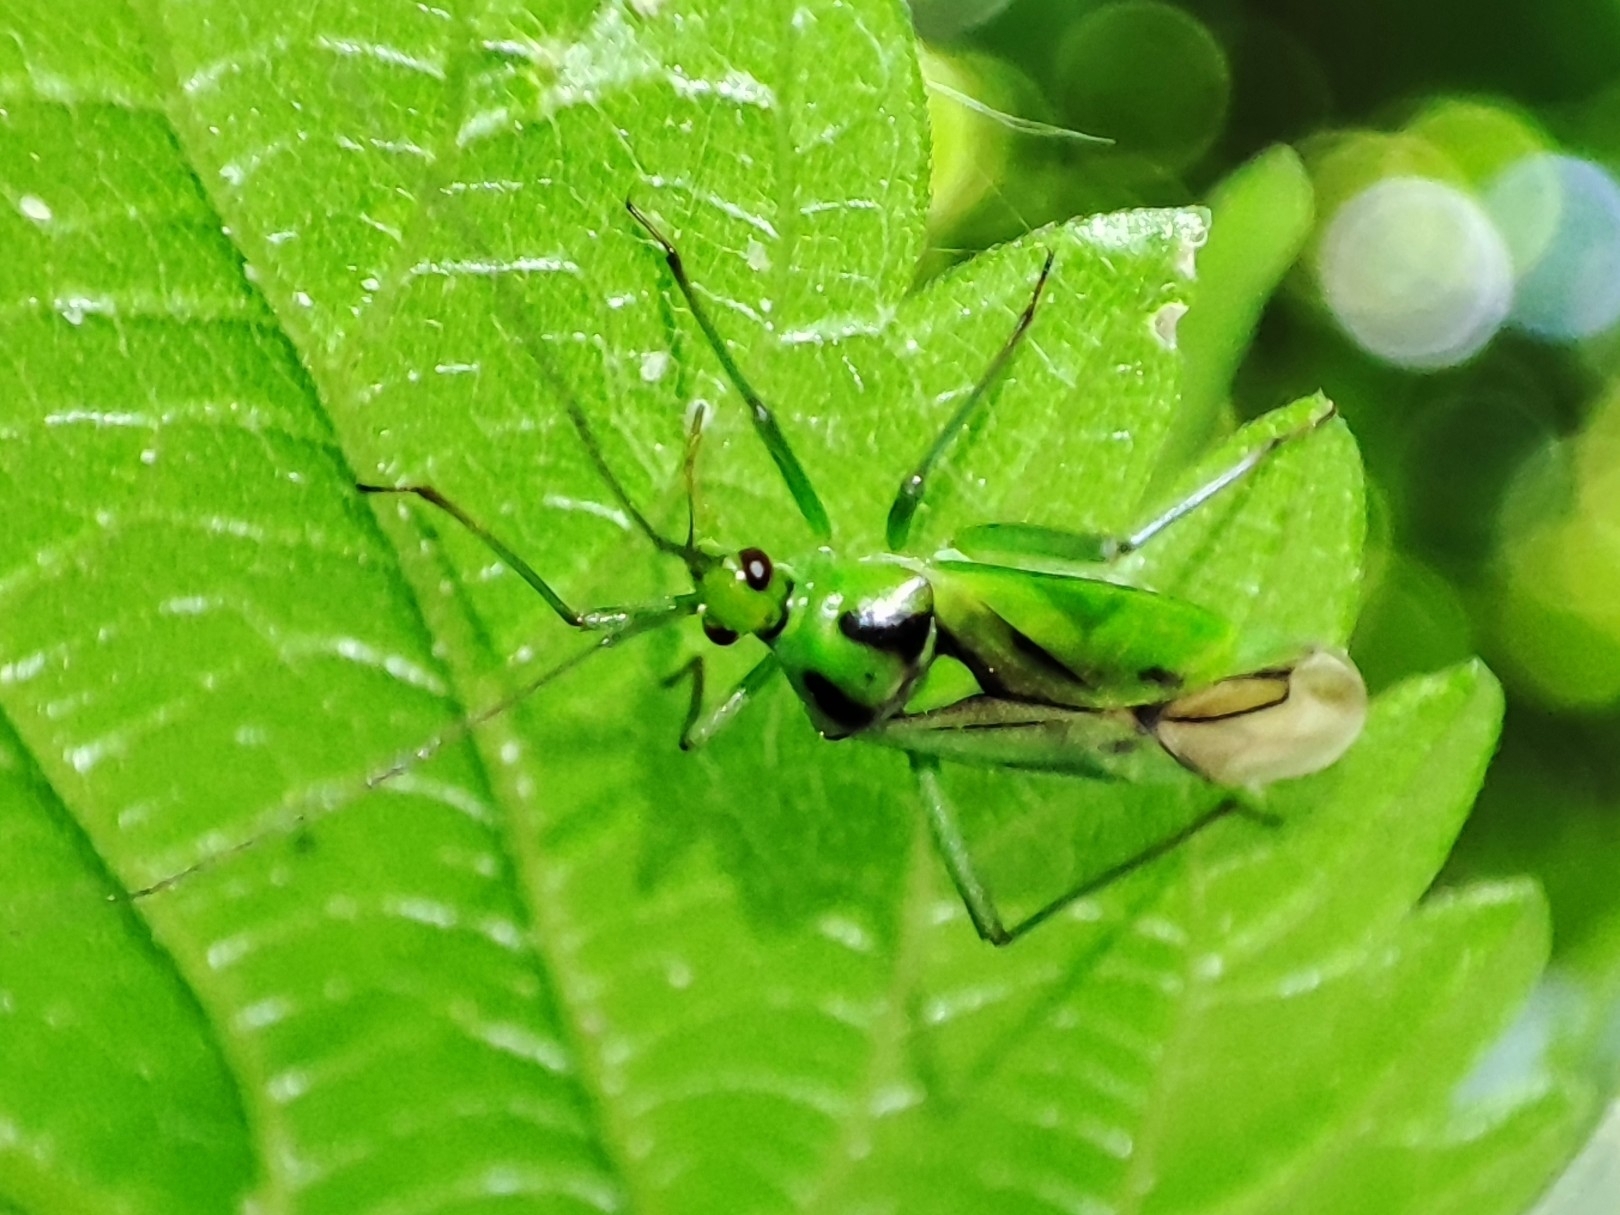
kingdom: Animalia
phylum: Arthropoda
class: Insecta
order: Hemiptera
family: Miridae
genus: Odontoplatys
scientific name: Odontoplatys suturalis
